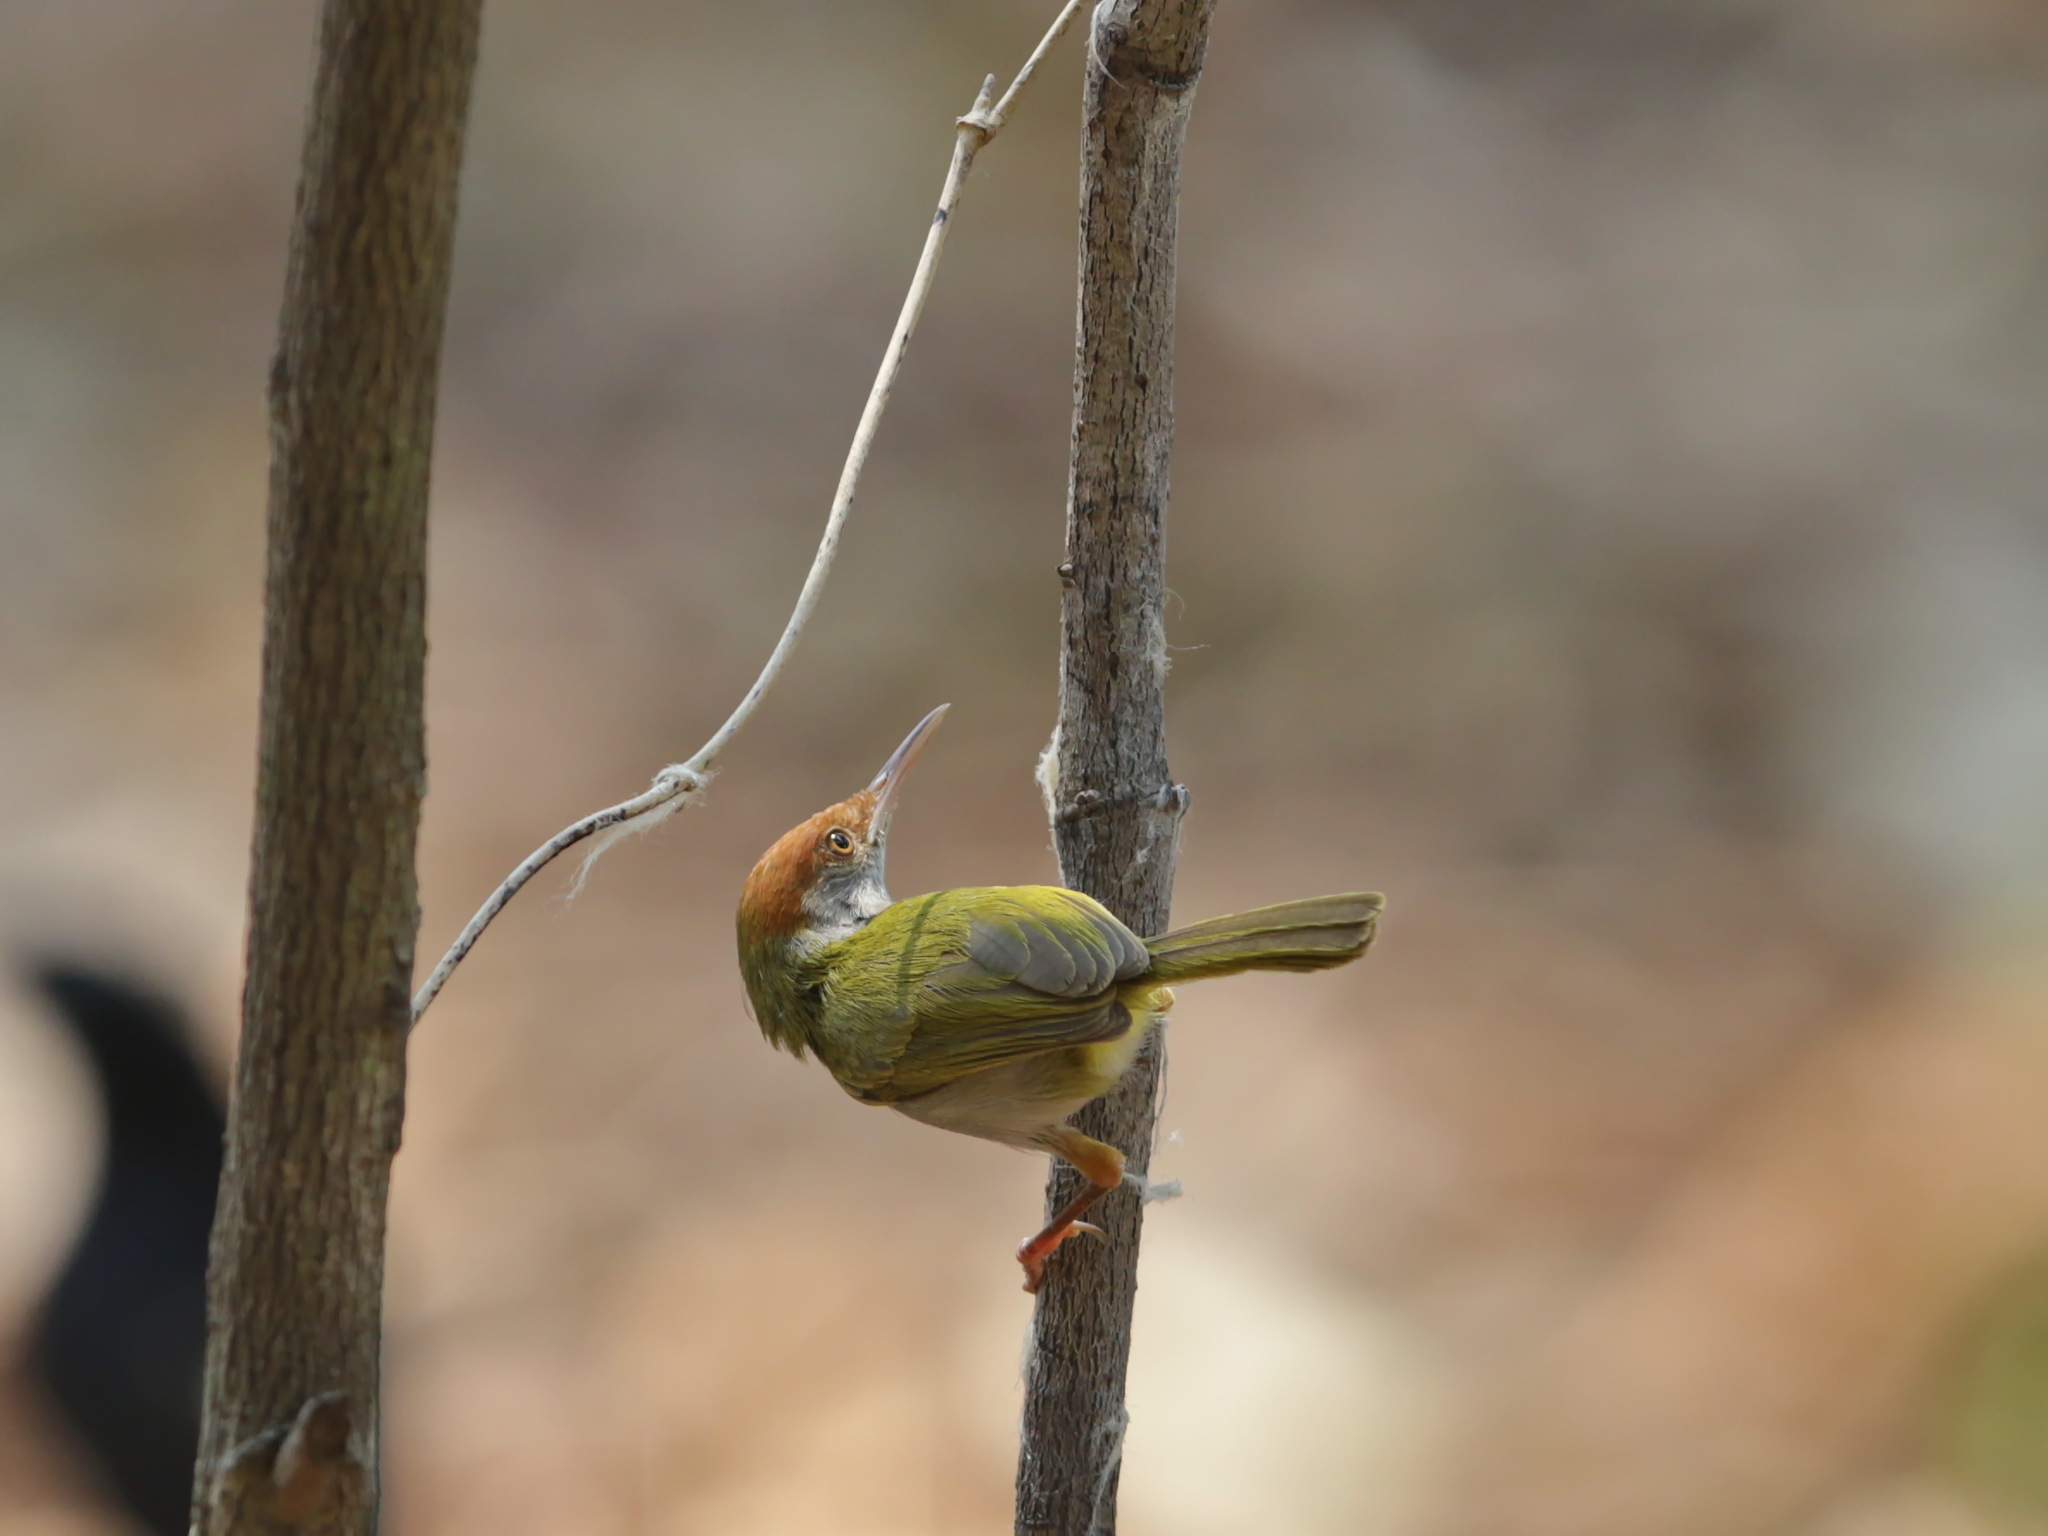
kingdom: Animalia
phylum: Chordata
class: Aves
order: Passeriformes
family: Cisticolidae
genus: Orthotomus
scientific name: Orthotomus atrogularis
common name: Dark-necked tailorbird
